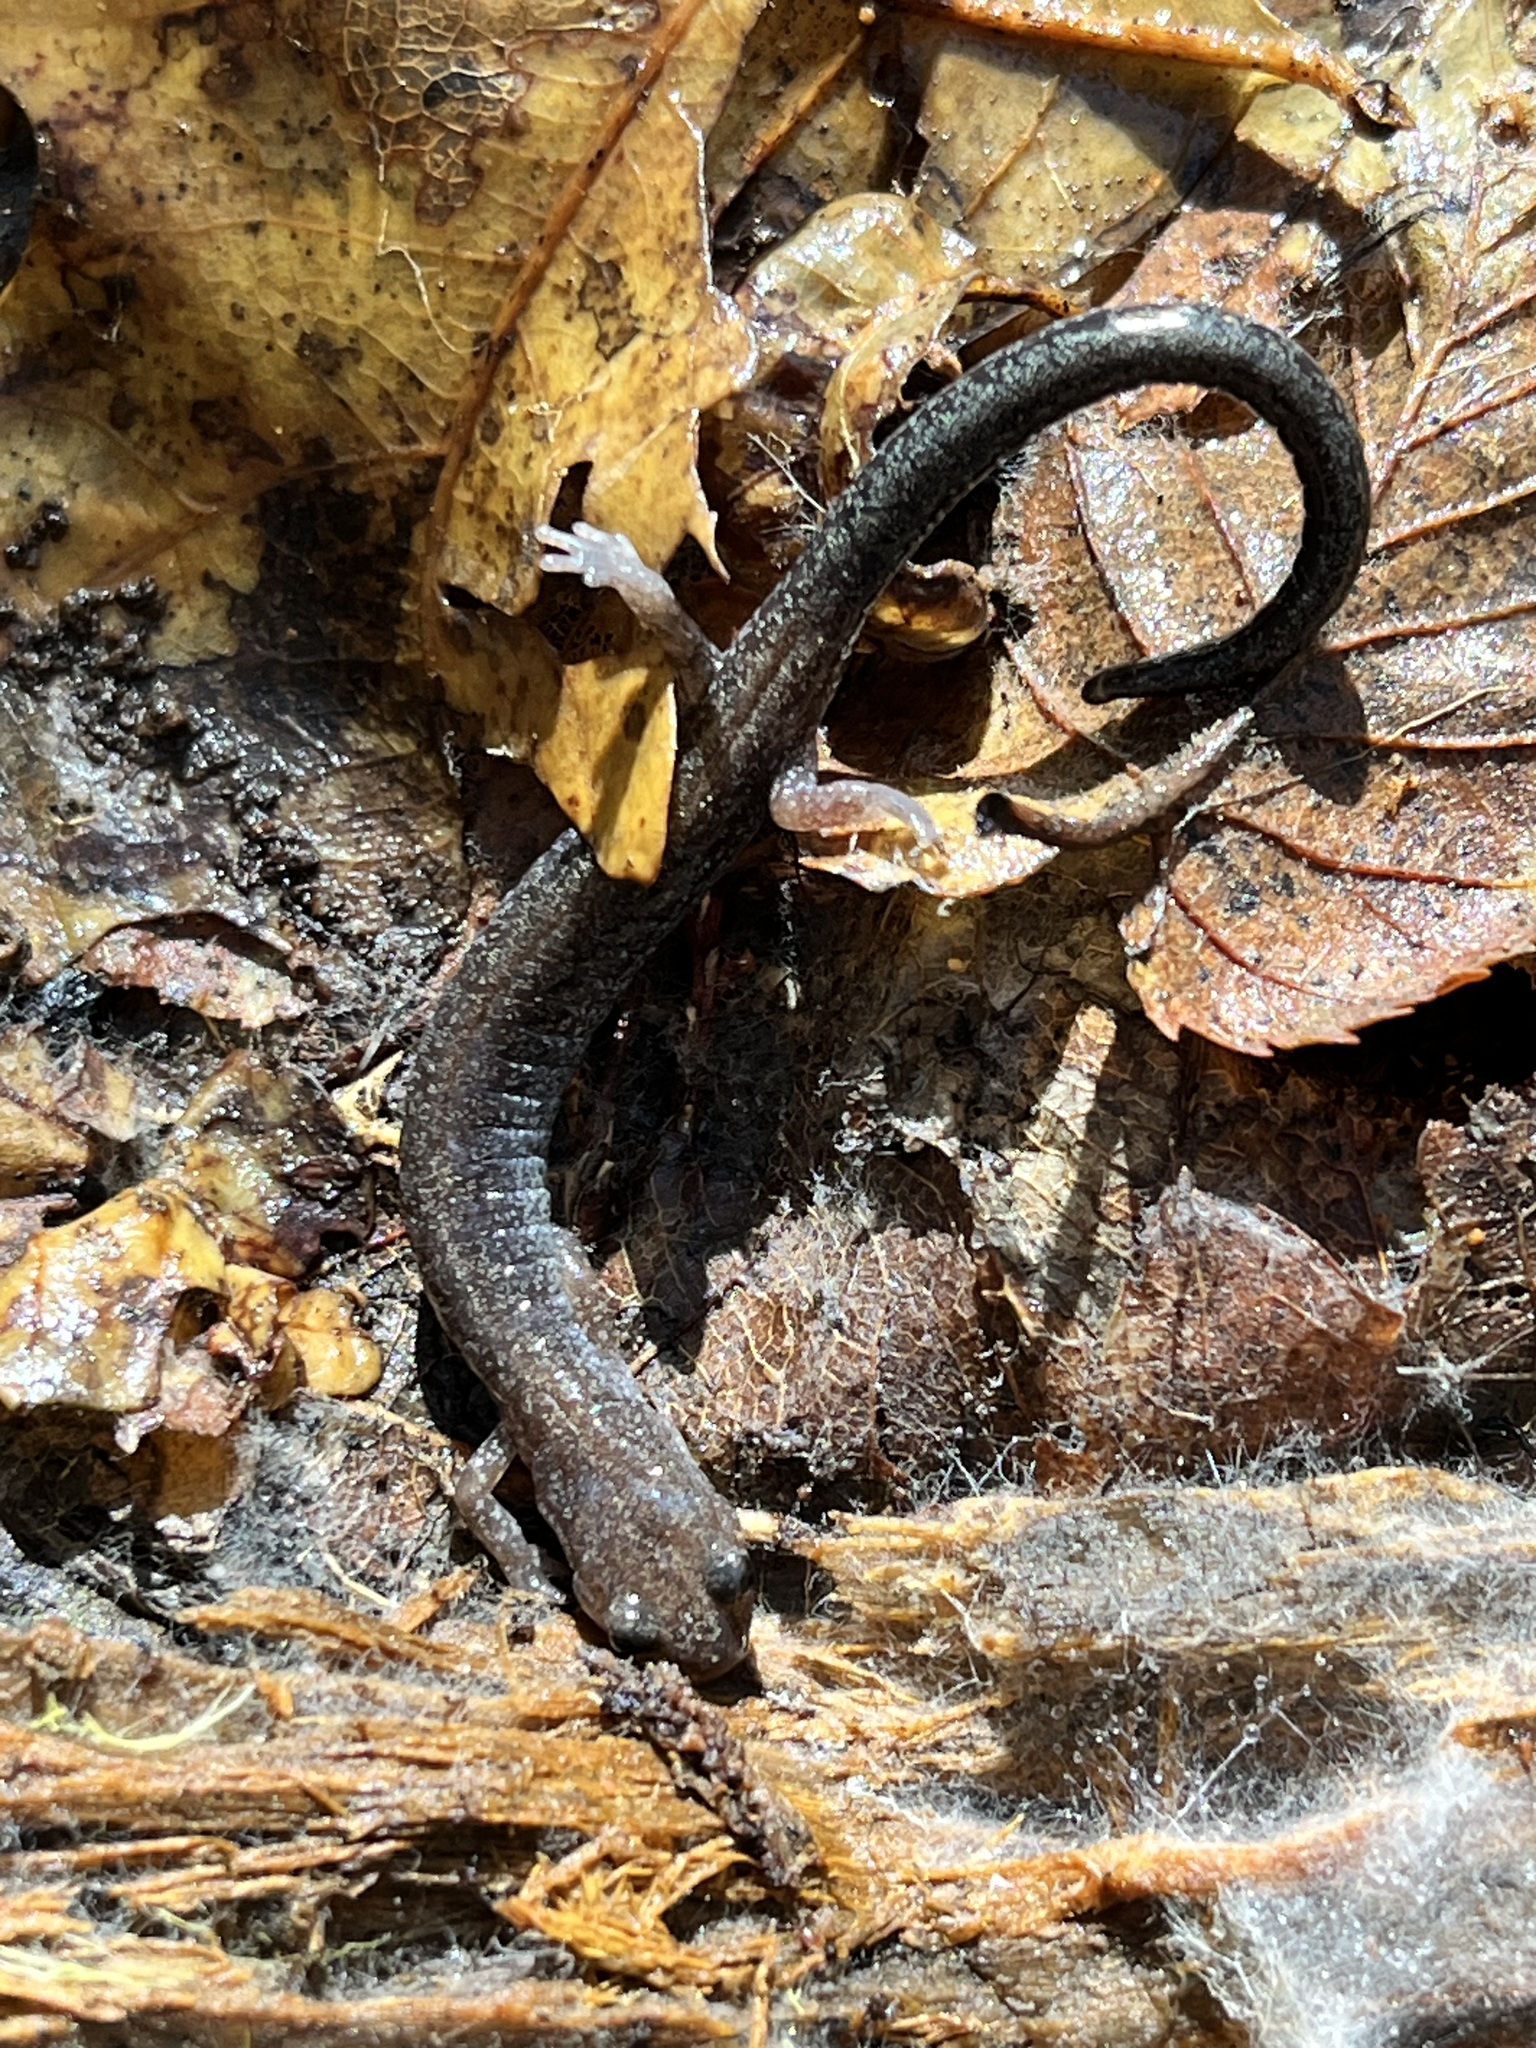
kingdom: Animalia
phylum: Chordata
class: Amphibia
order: Caudata
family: Plethodontidae
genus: Plethodon
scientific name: Plethodon cinereus
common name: Redback salamander
